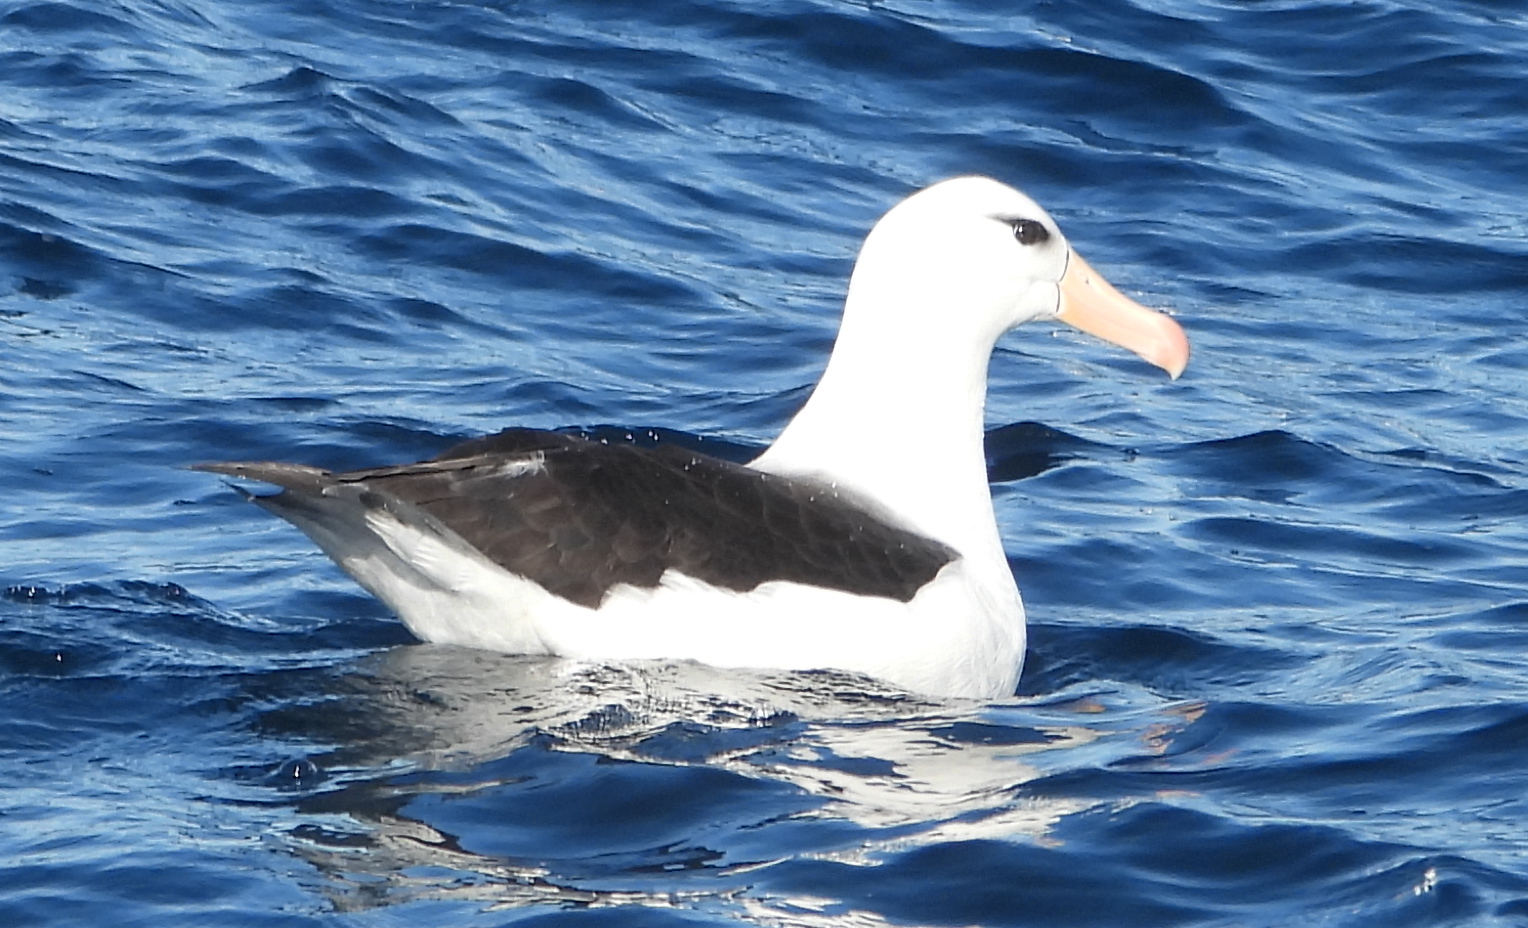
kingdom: Animalia
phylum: Chordata
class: Aves
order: Procellariiformes
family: Diomedeidae
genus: Thalassarche
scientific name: Thalassarche melanophris
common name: Black-browed albatross
